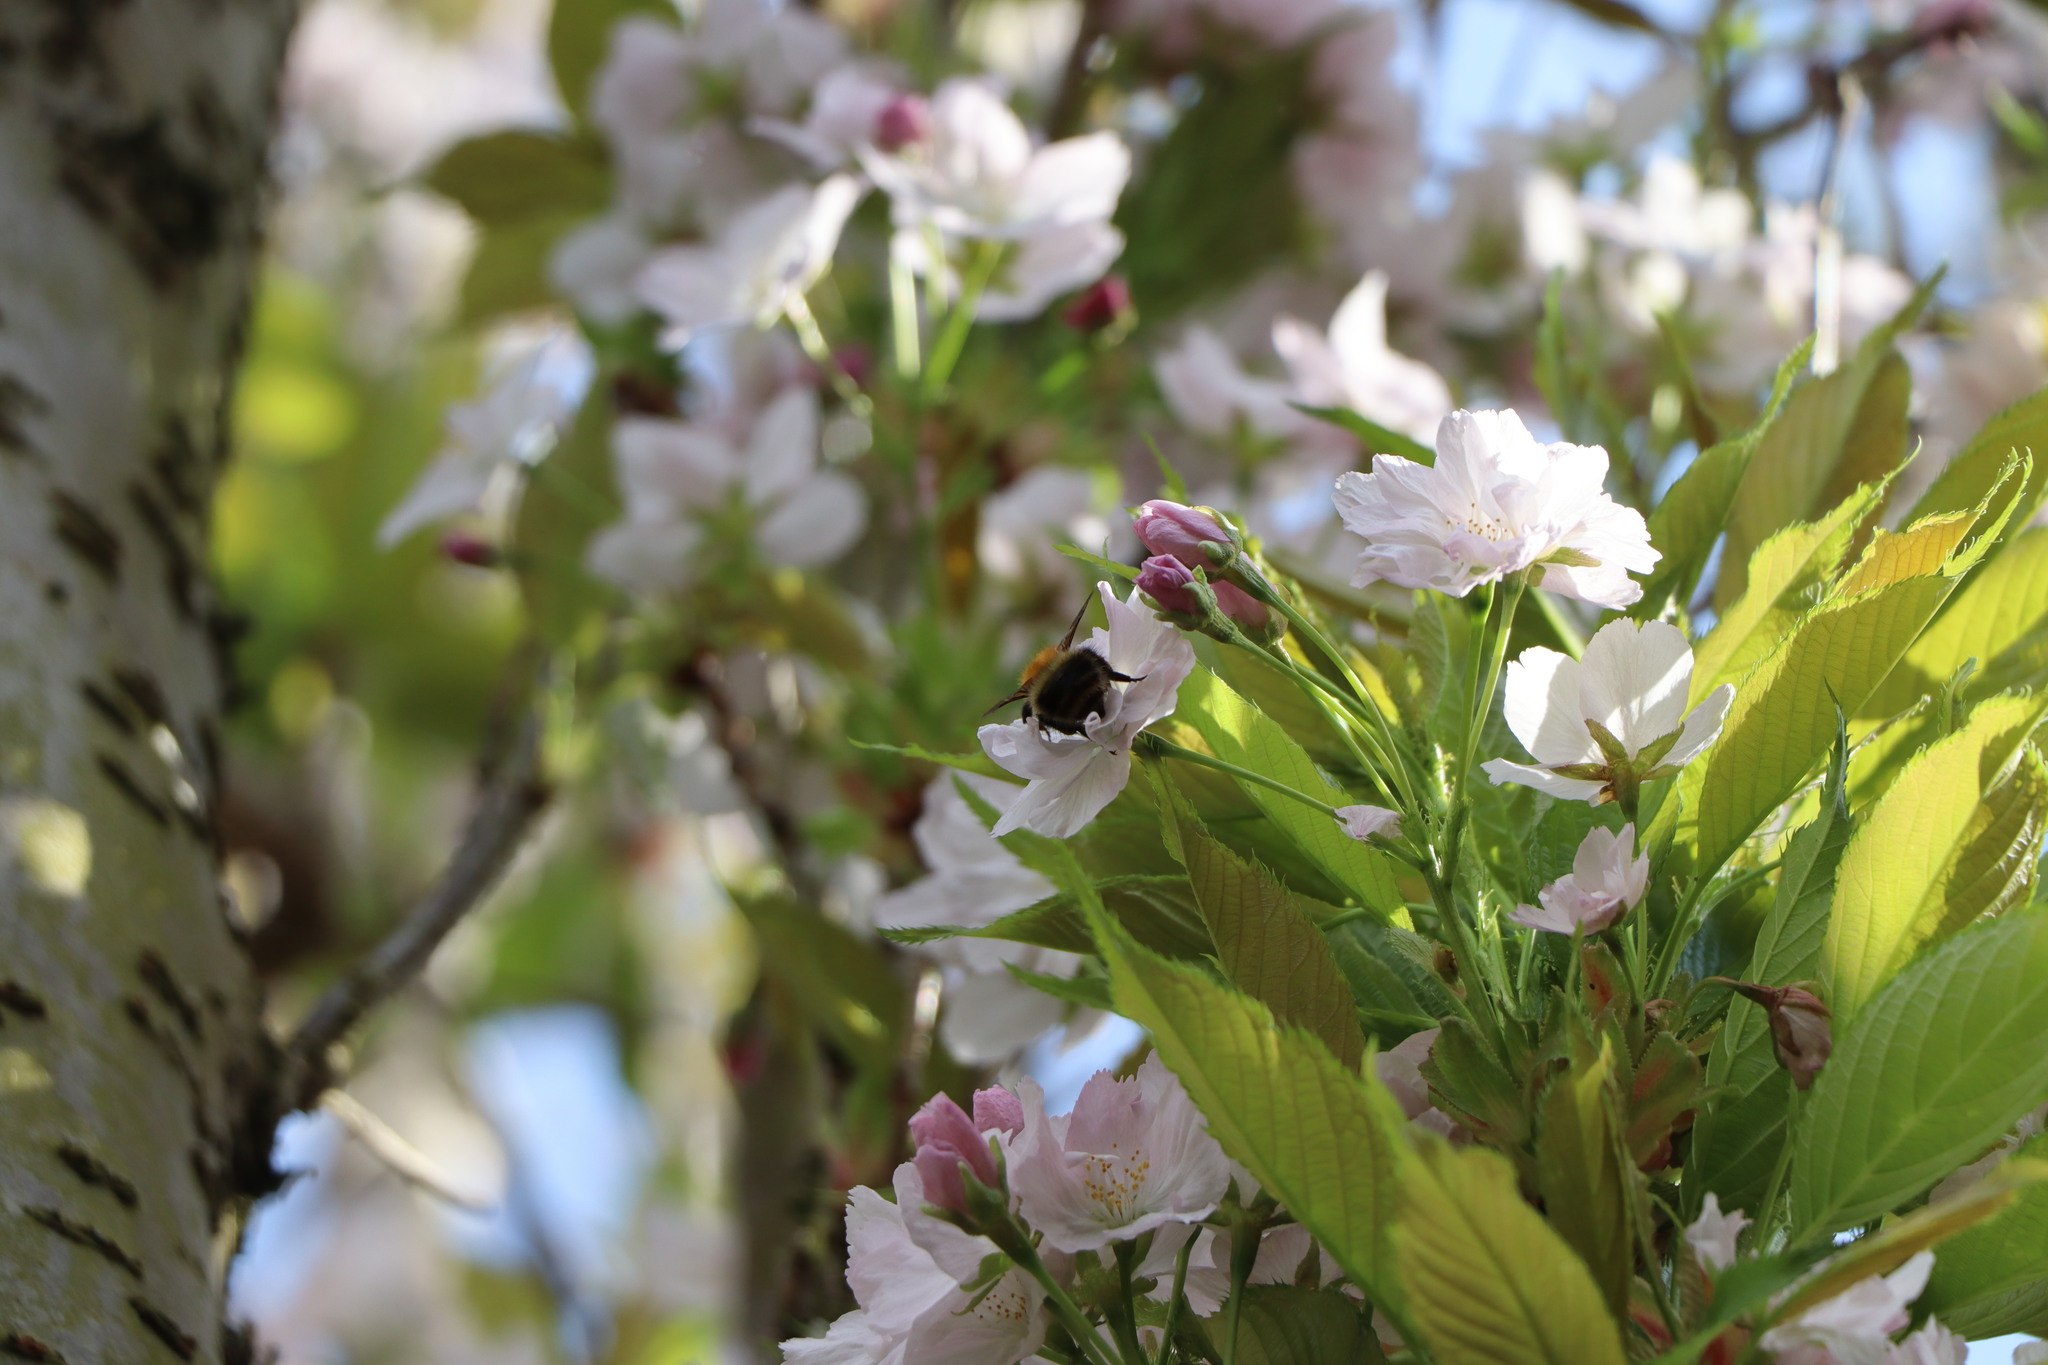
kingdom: Animalia
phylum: Arthropoda
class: Insecta
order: Hymenoptera
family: Apidae
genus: Bombus
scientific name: Bombus pascuorum
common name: Common carder bee
